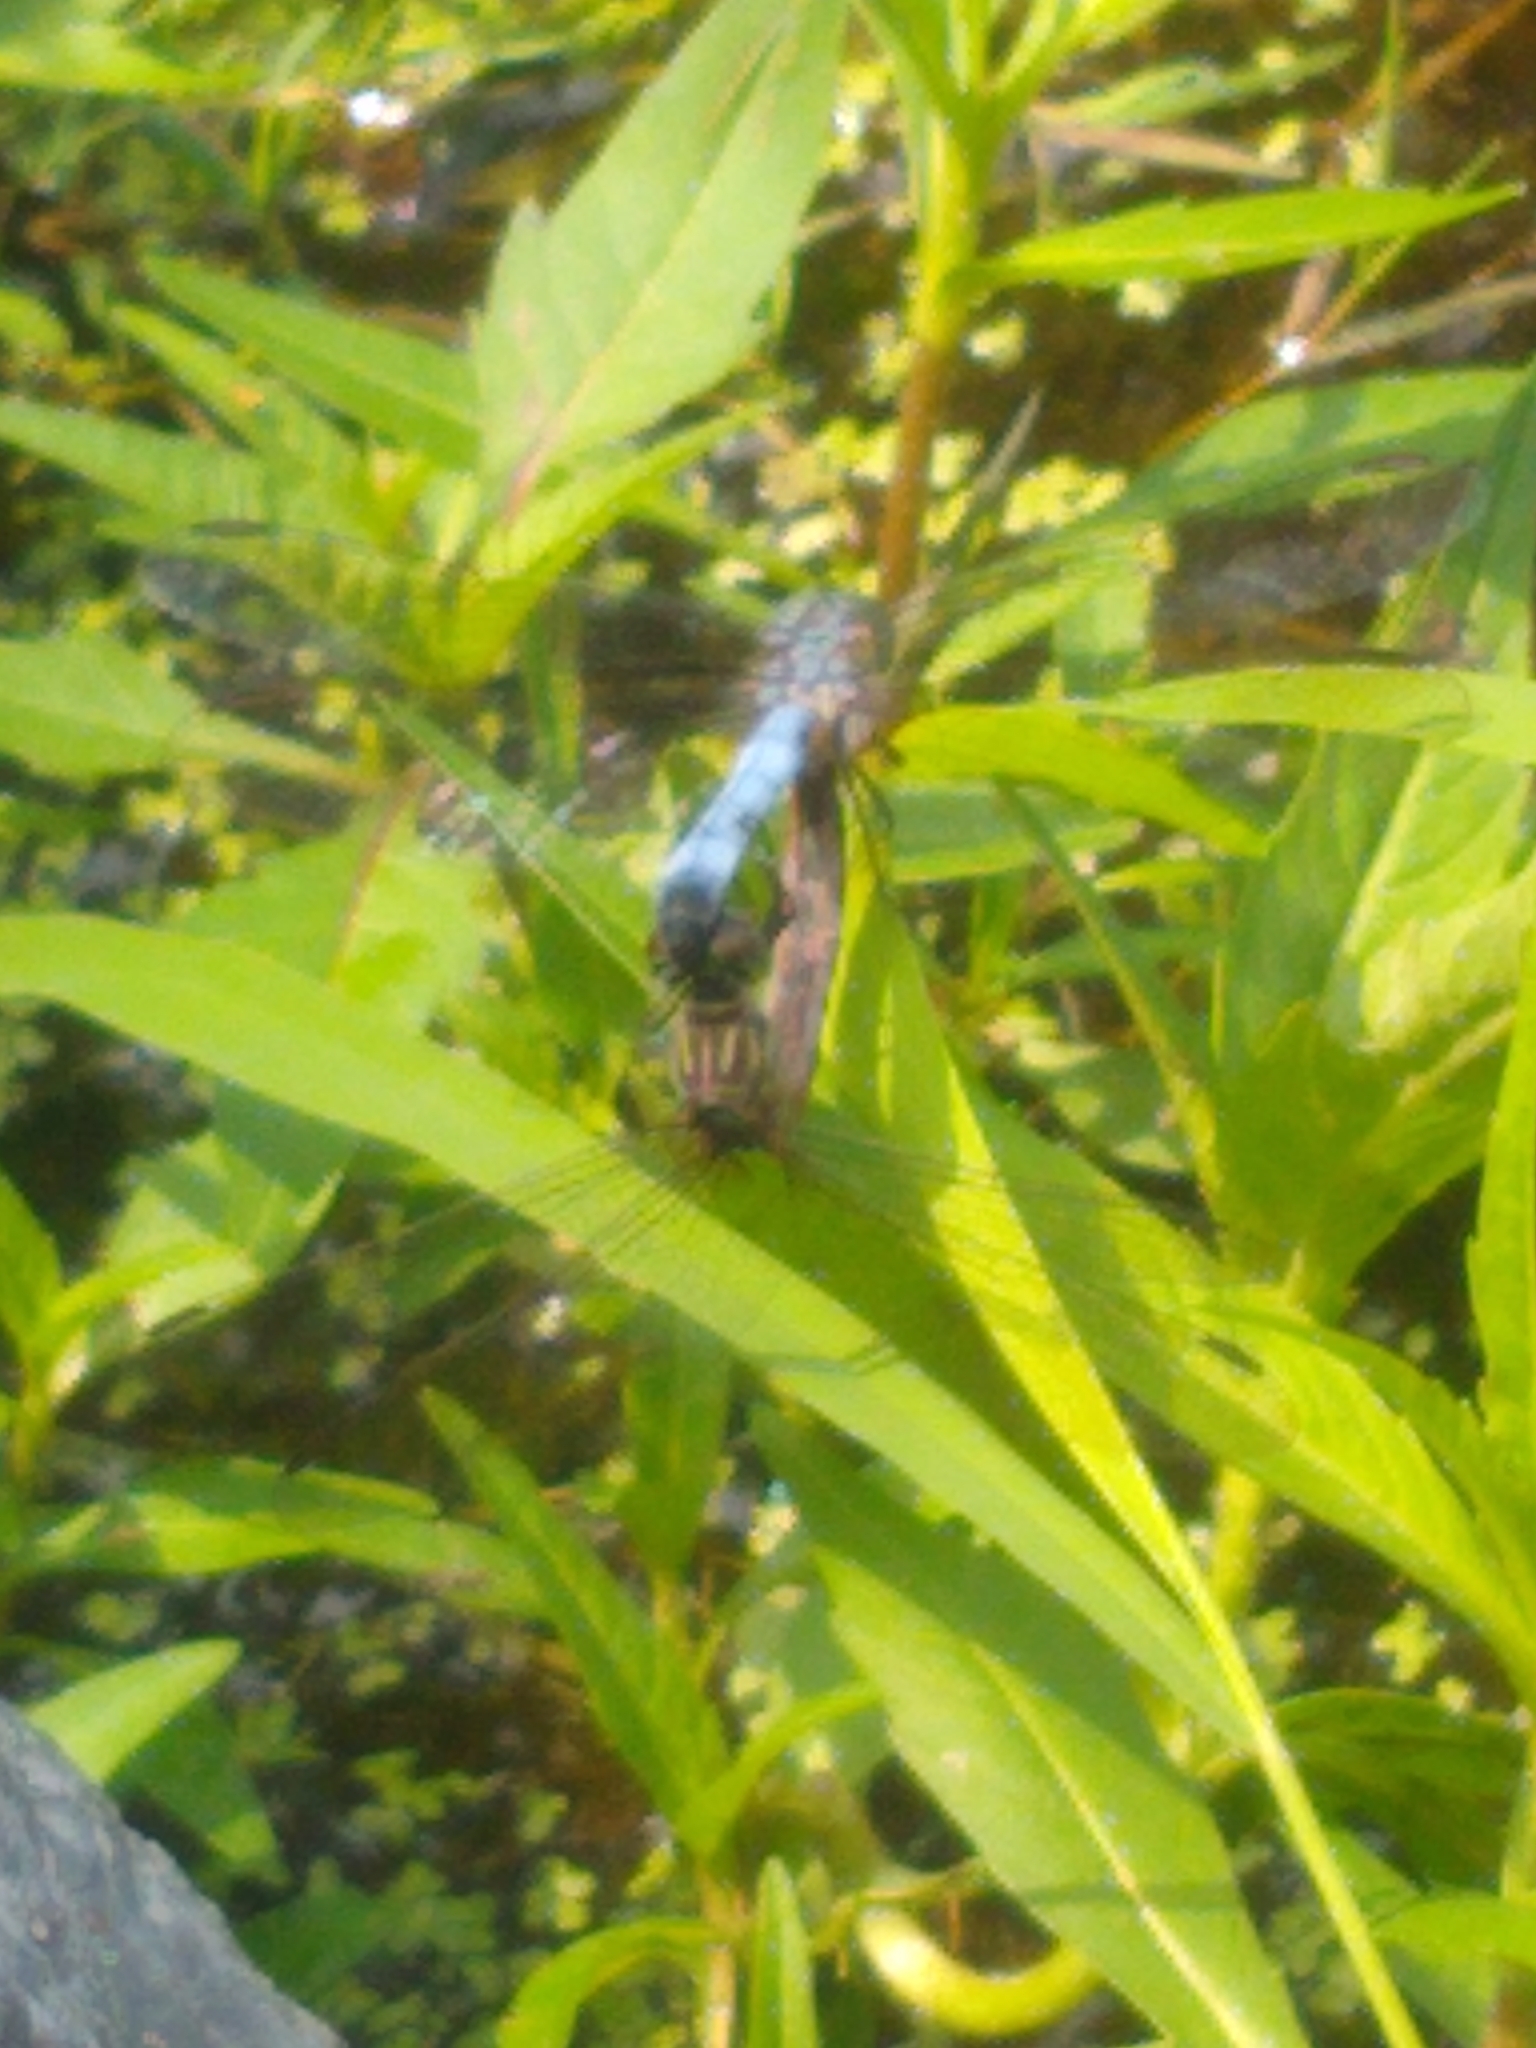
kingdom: Animalia
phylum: Arthropoda
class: Insecta
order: Odonata
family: Libellulidae
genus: Pachydiplax
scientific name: Pachydiplax longipennis
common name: Blue dasher
